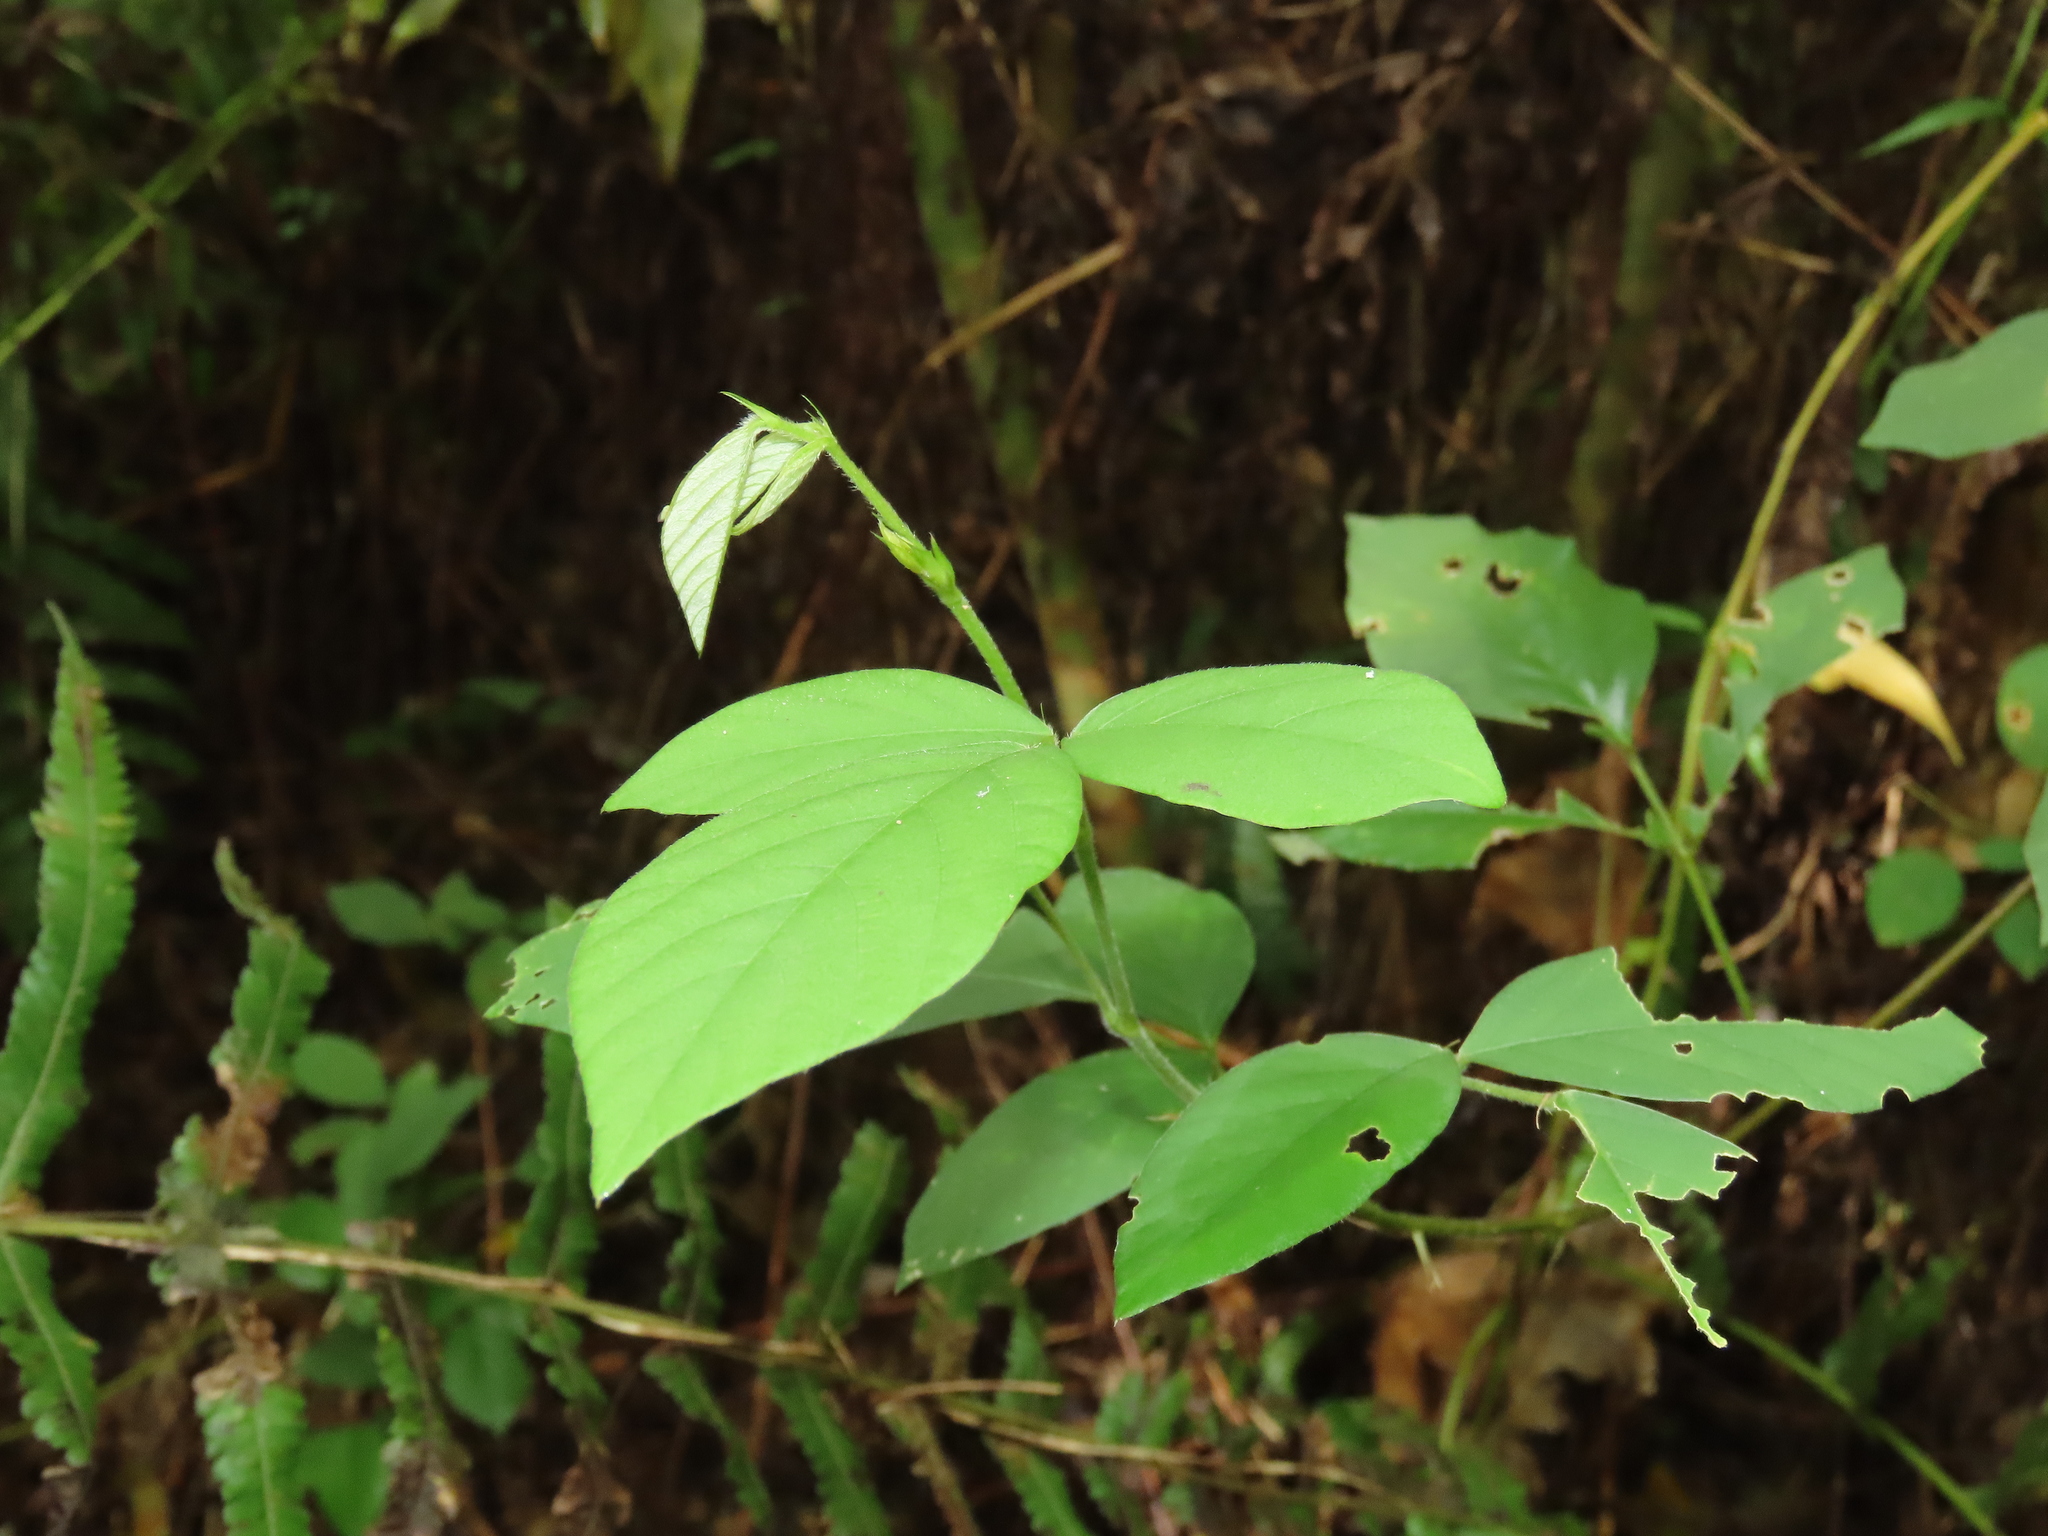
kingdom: Plantae
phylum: Tracheophyta
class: Magnoliopsida
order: Fabales
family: Fabaceae
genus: Centrosema
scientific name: Centrosema pubescens
